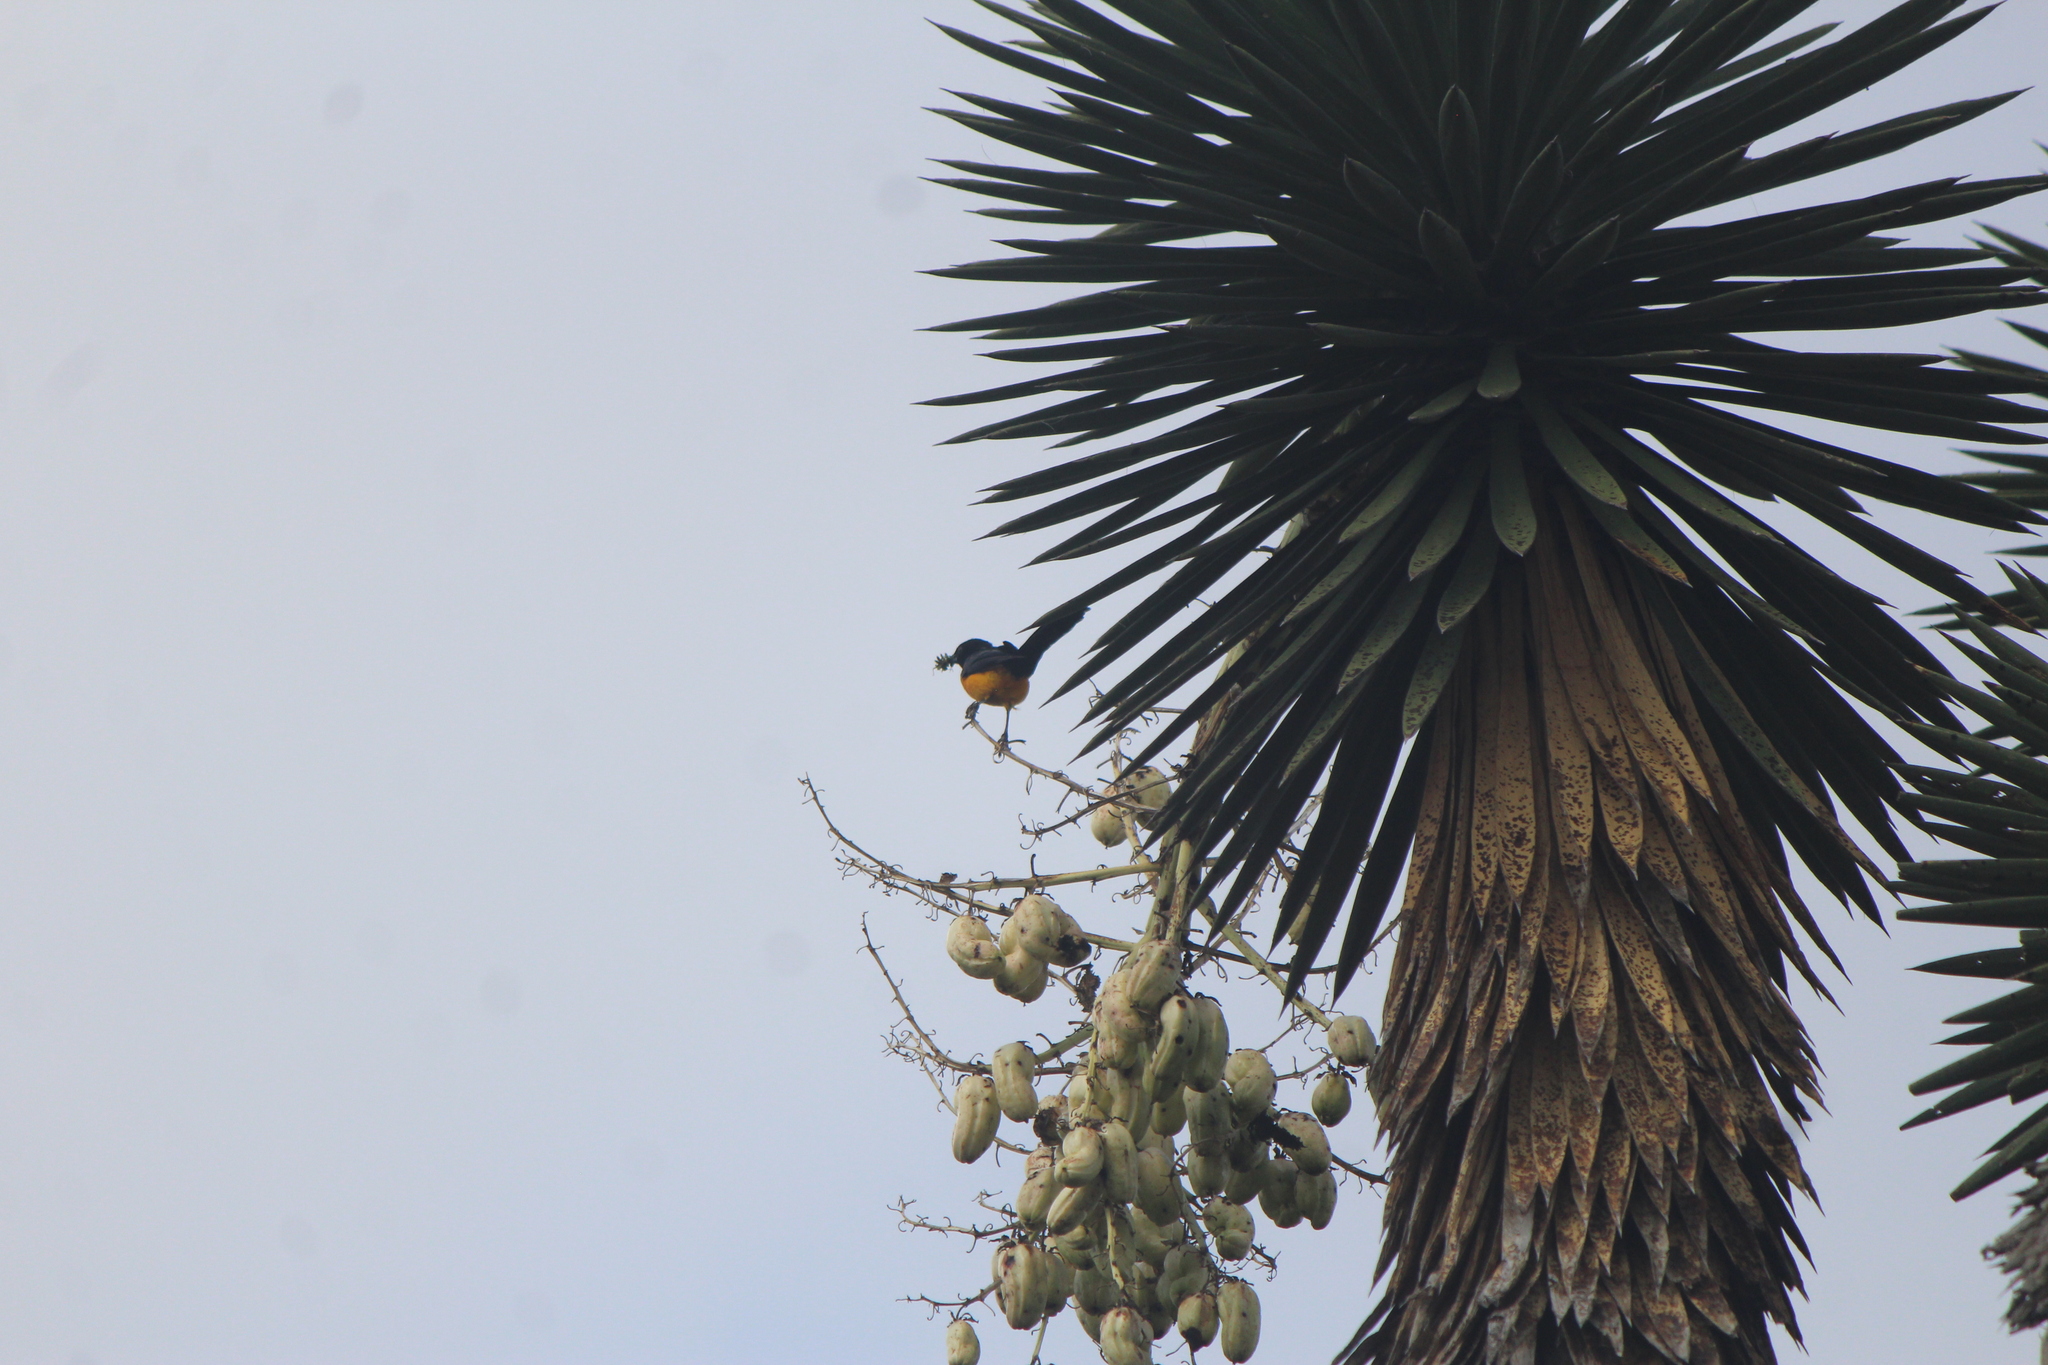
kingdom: Animalia
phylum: Chordata
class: Aves
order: Passeriformes
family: Icteridae
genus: Icterus
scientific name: Icterus wagleri
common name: Black-vented oriole
